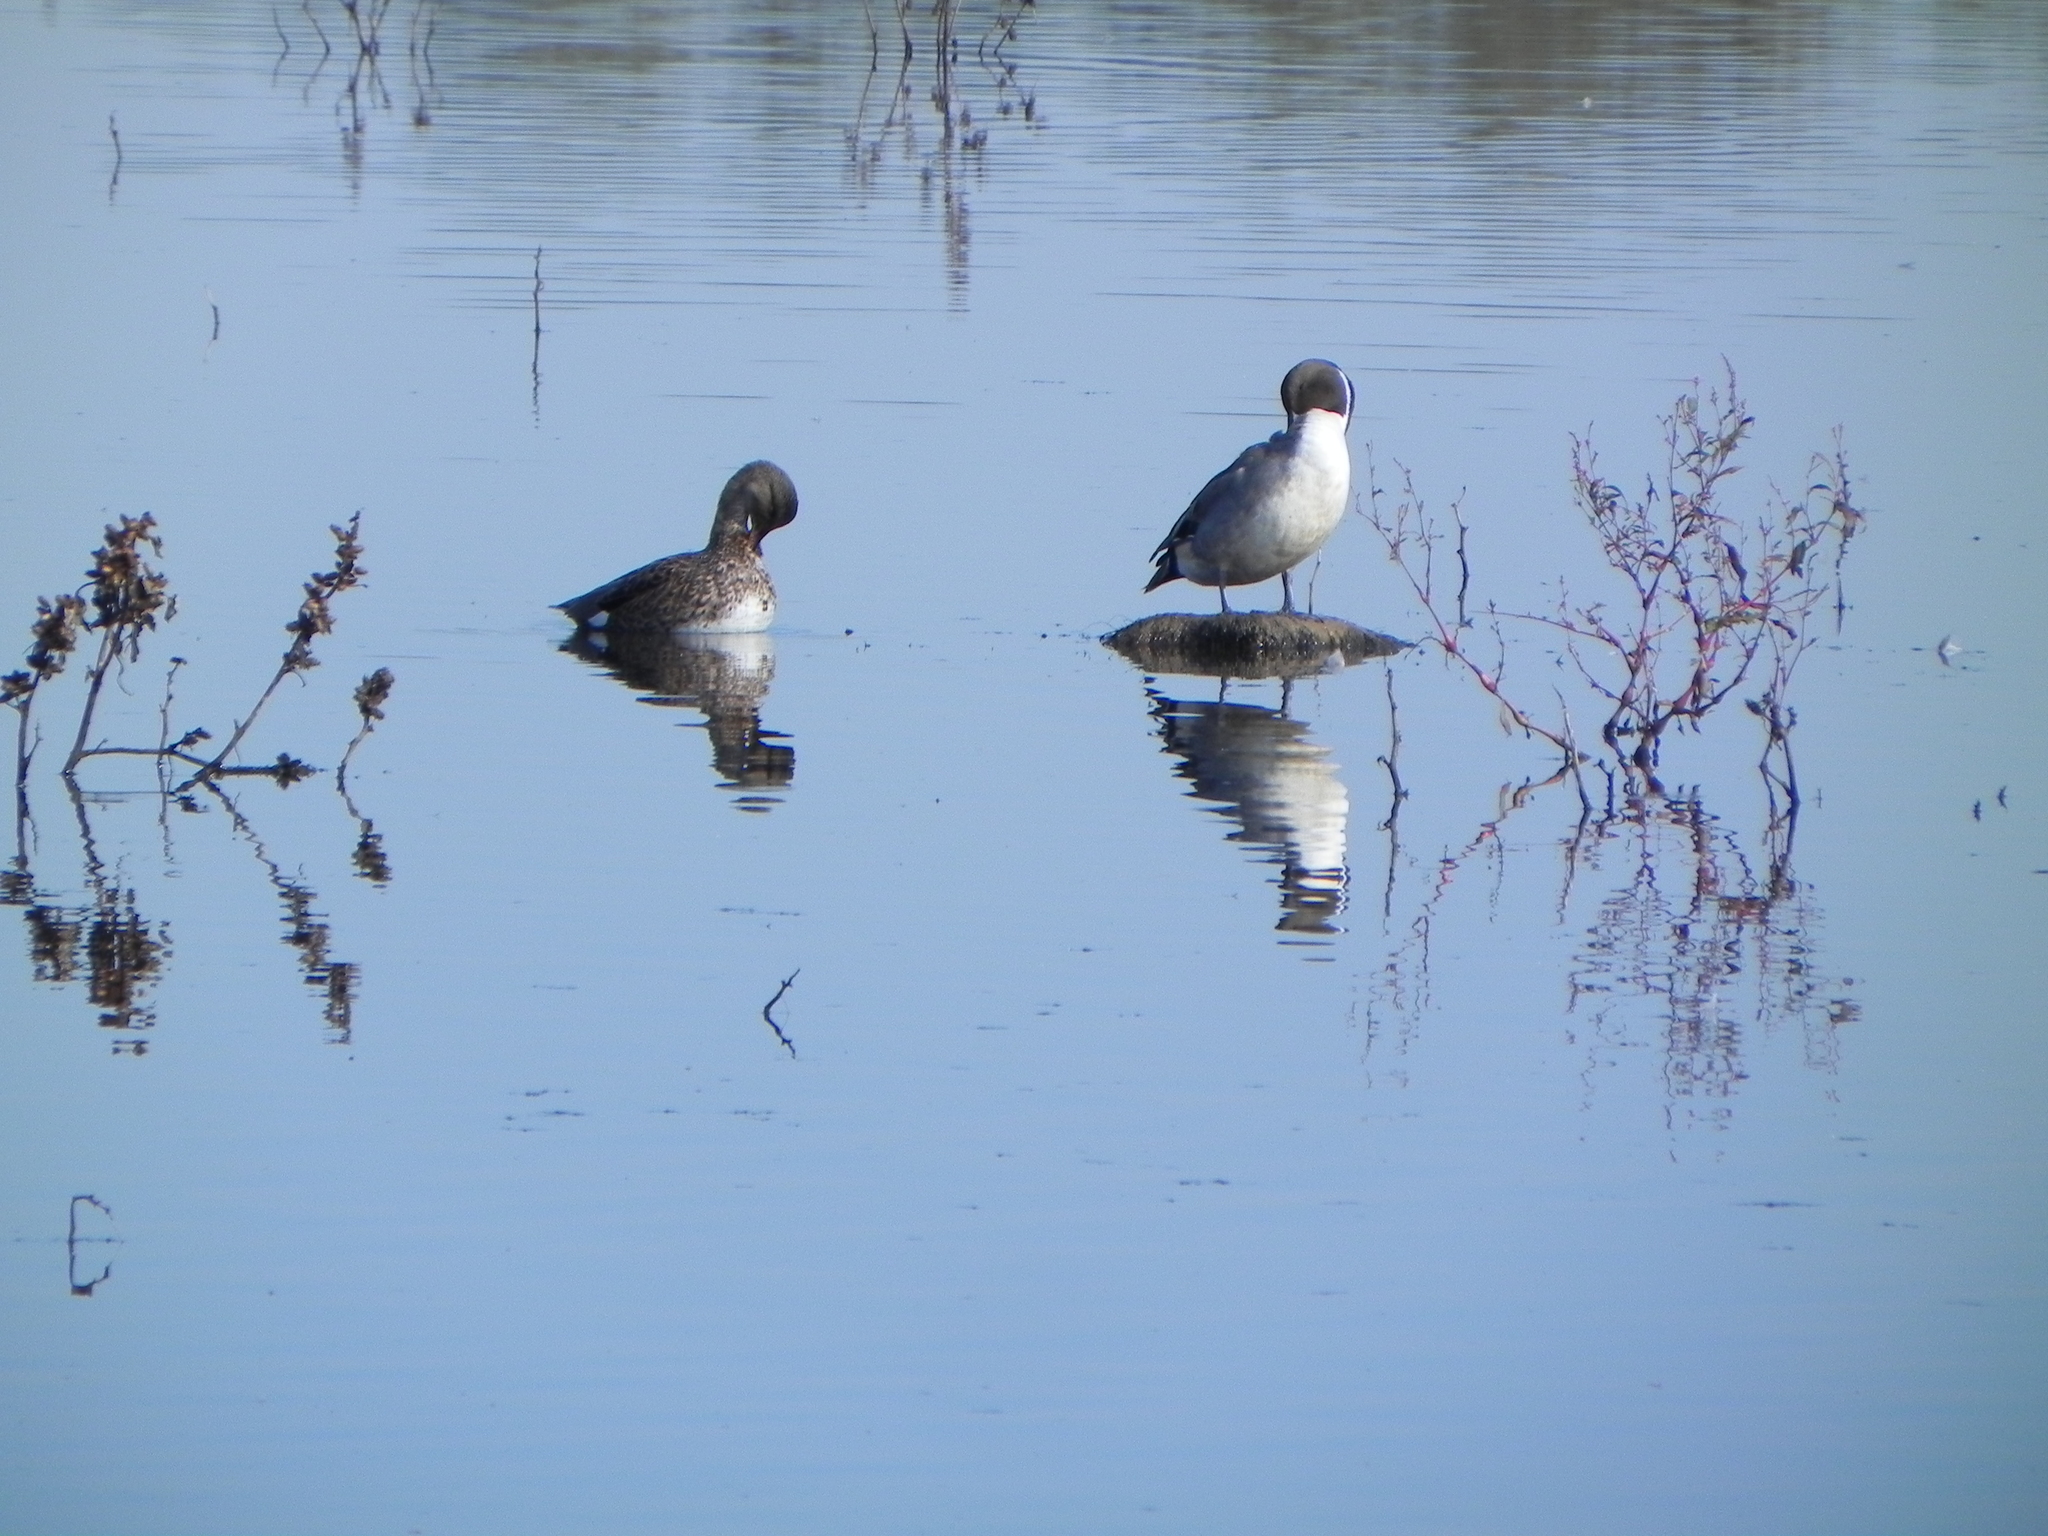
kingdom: Animalia
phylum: Chordata
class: Aves
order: Anseriformes
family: Anatidae
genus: Anas
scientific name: Anas acuta
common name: Northern pintail
